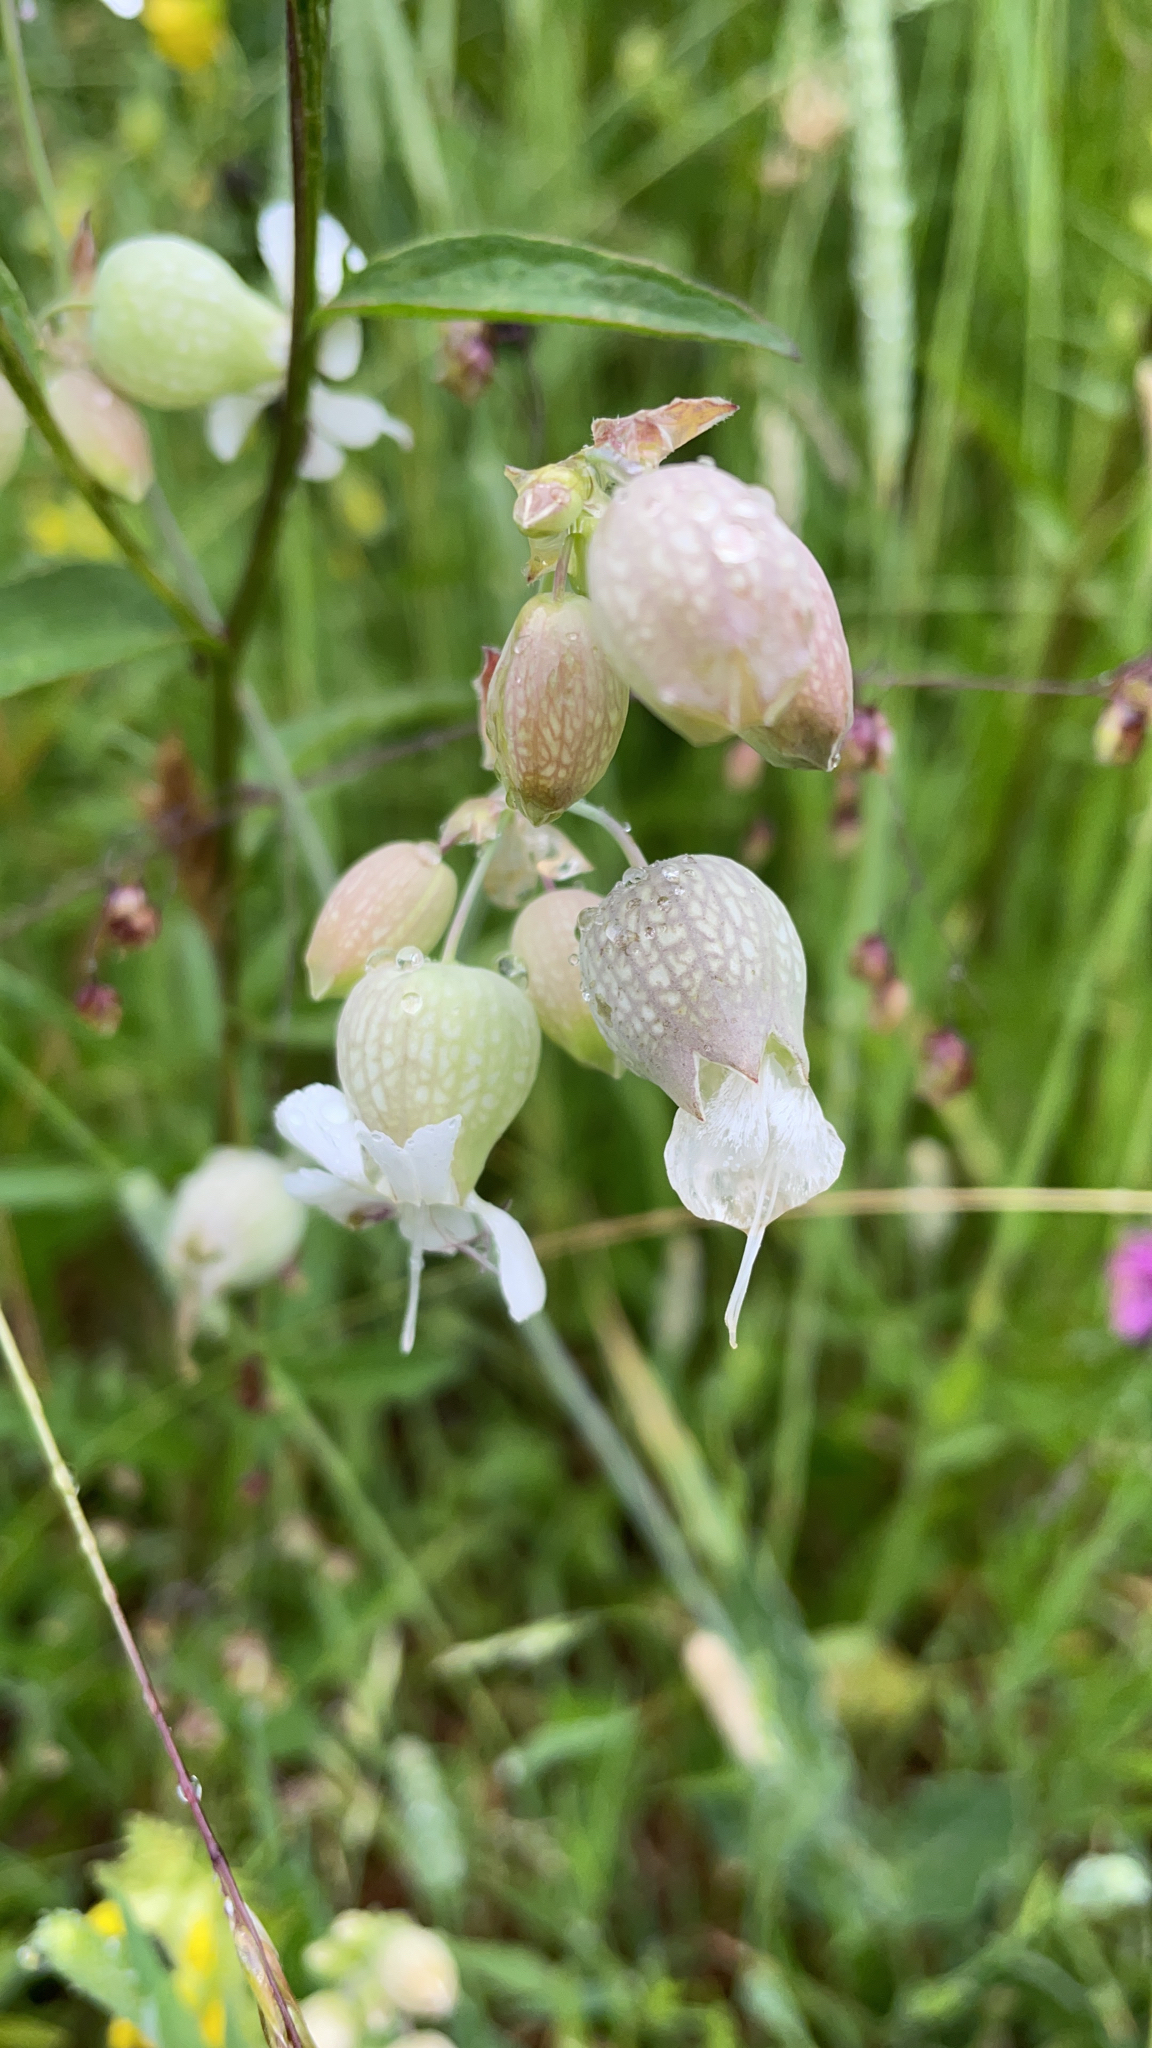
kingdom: Plantae
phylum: Tracheophyta
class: Magnoliopsida
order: Caryophyllales
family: Caryophyllaceae
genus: Silene
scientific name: Silene vulgaris
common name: Bladder campion
